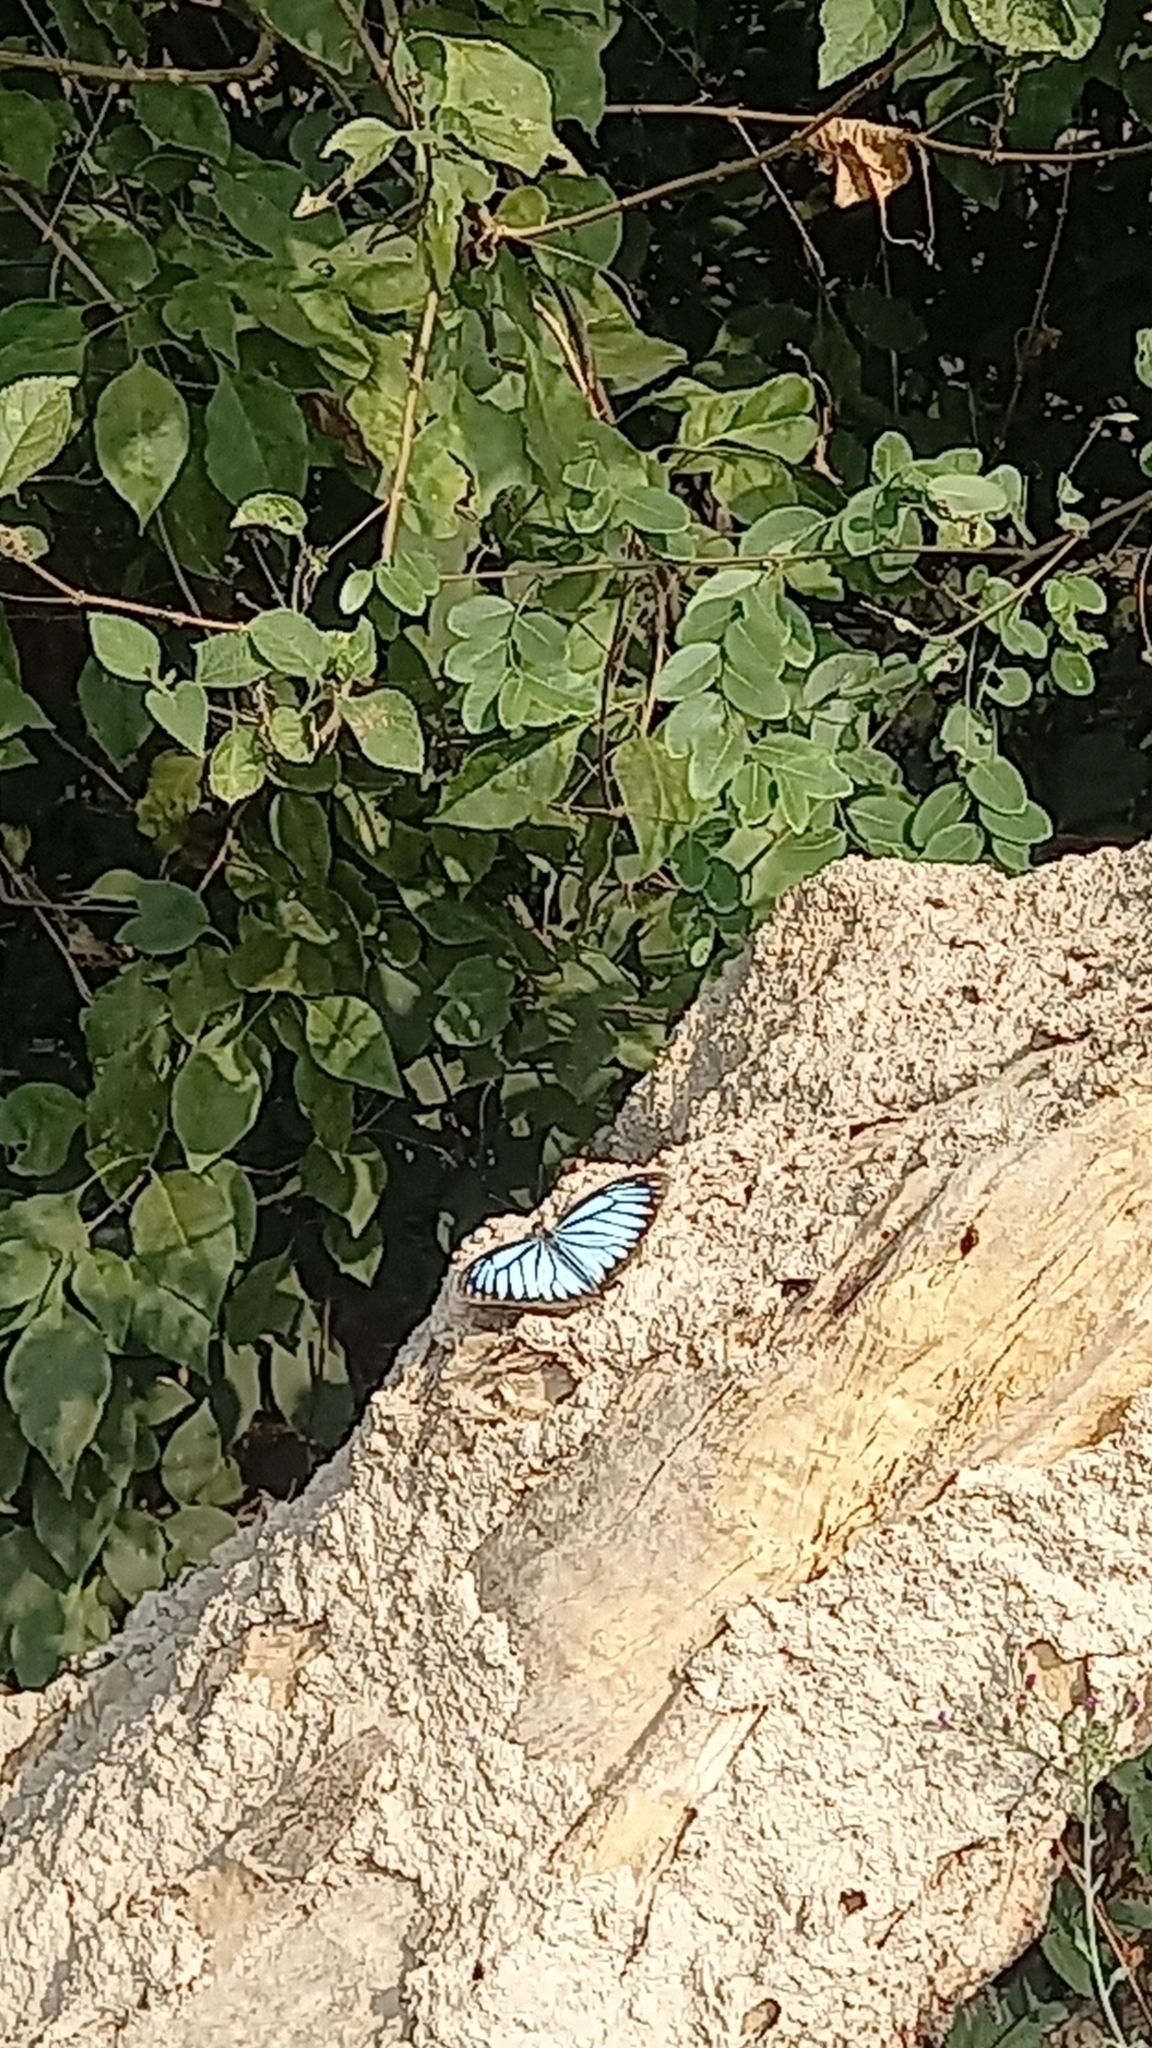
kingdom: Animalia
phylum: Arthropoda
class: Insecta
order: Lepidoptera
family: Pieridae
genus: Pareronia
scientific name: Pareronia hippia
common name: Indian wanderer
